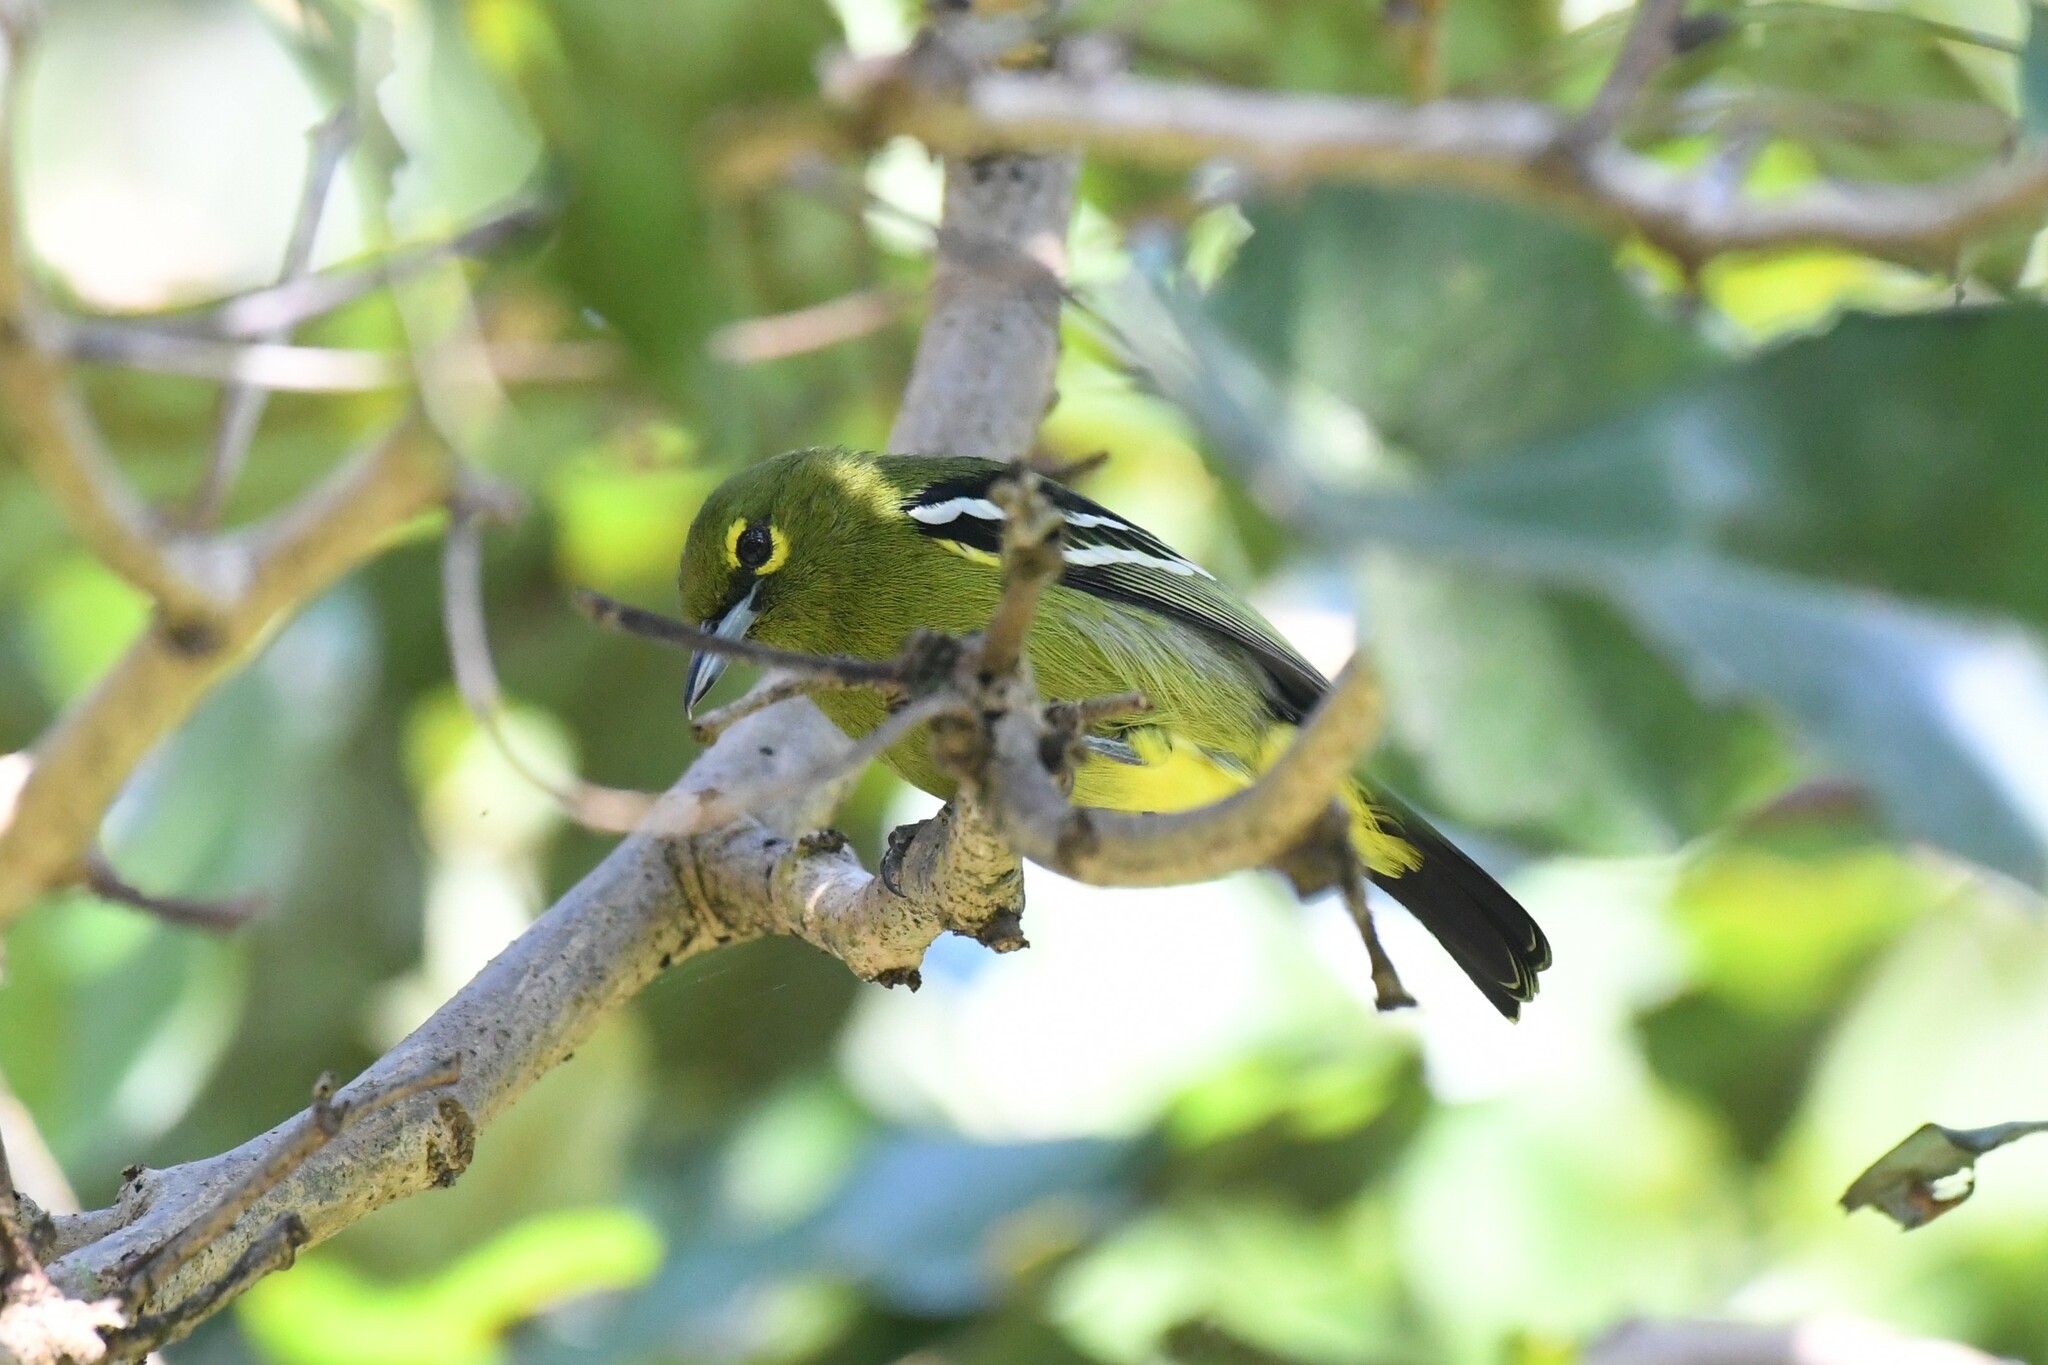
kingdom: Animalia
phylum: Chordata
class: Aves
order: Passeriformes
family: Aegithinidae
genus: Aegithina
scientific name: Aegithina viridissima
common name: Green iora
